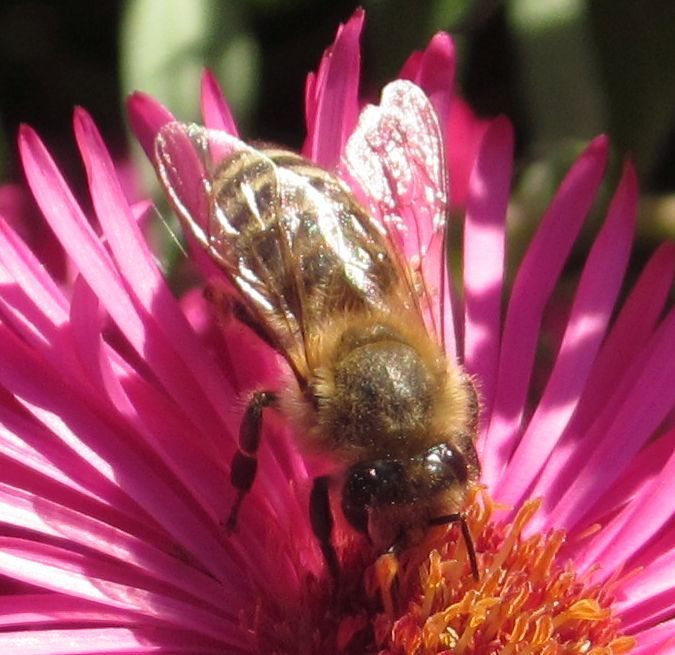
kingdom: Animalia
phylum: Arthropoda
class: Insecta
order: Hymenoptera
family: Apidae
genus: Apis
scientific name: Apis mellifera
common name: Honey bee
